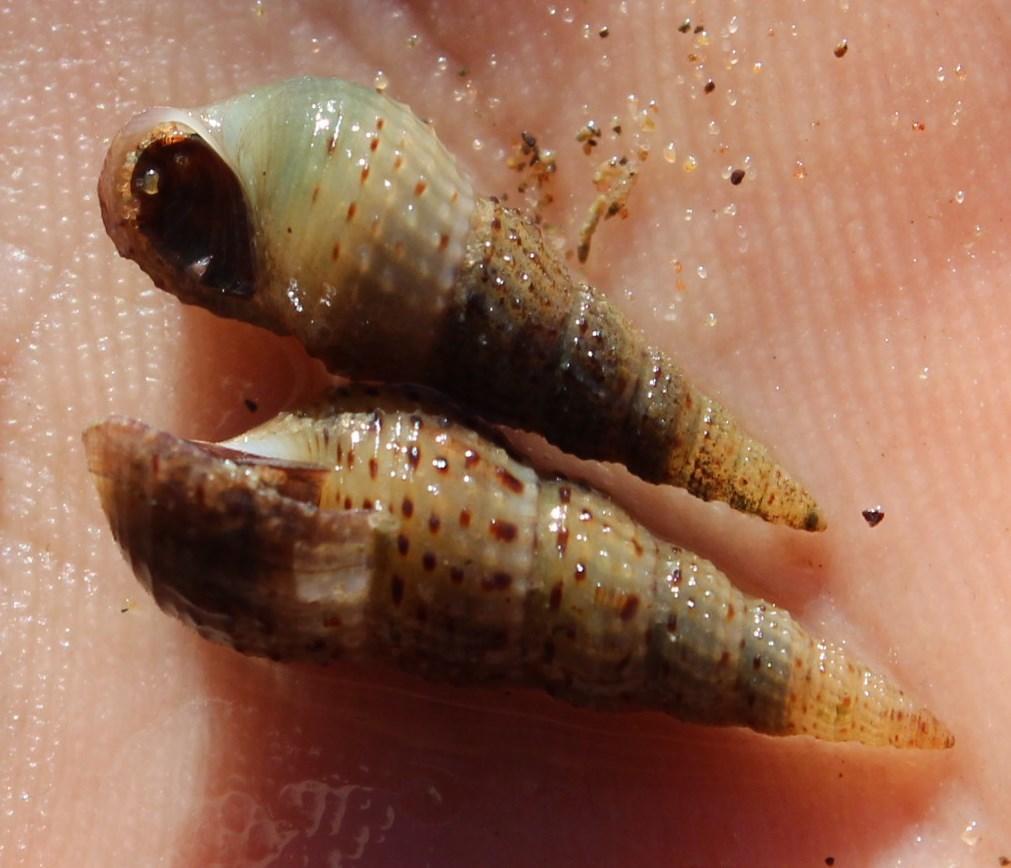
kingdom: Animalia
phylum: Mollusca
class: Gastropoda
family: Thiaridae
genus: Melanoides
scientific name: Melanoides tuberculata
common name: Red-rim melania
